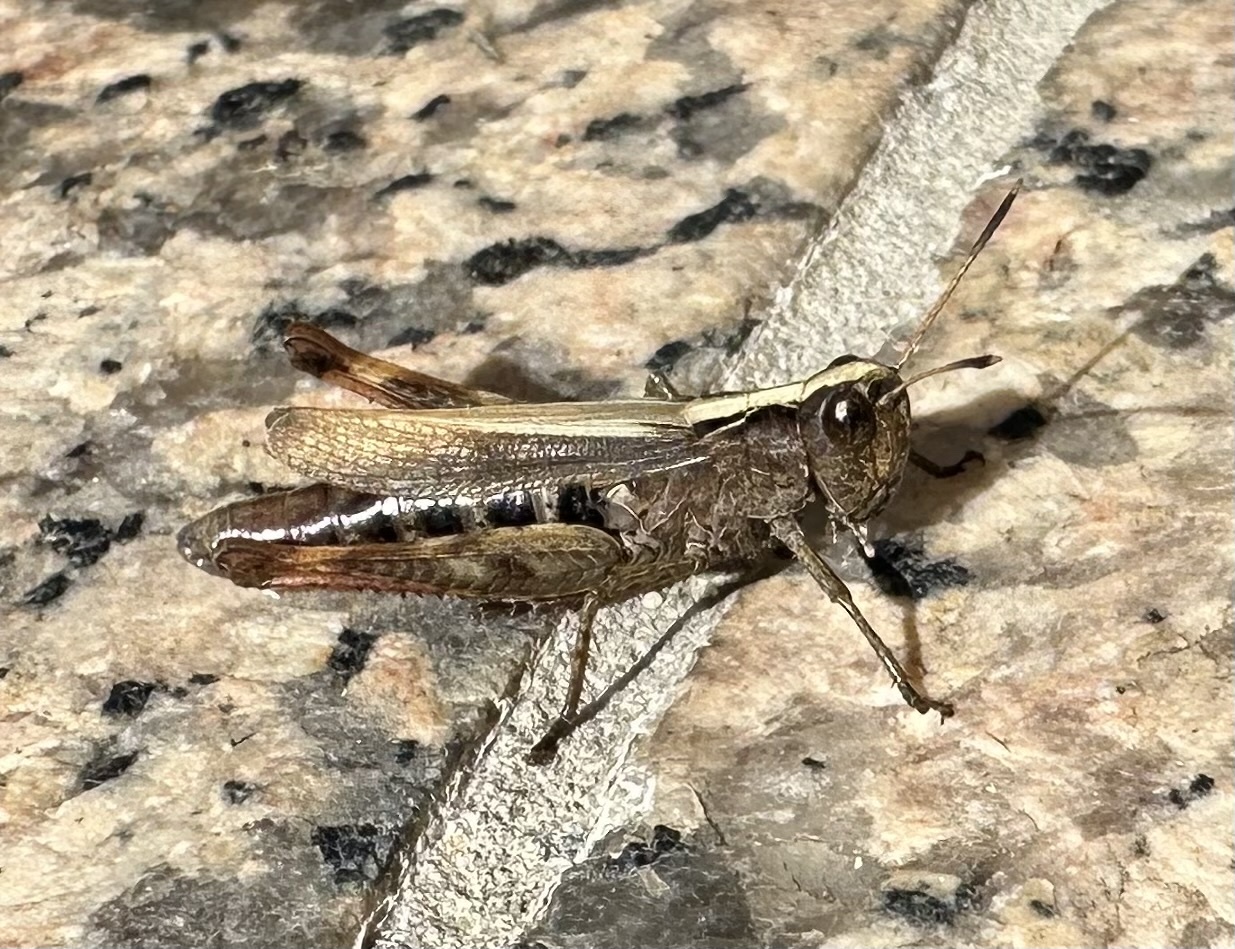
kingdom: Animalia
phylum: Arthropoda
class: Insecta
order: Orthoptera
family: Acrididae
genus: Gomphocerippus
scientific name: Gomphocerippus rufus
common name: Rufous grasshopper
